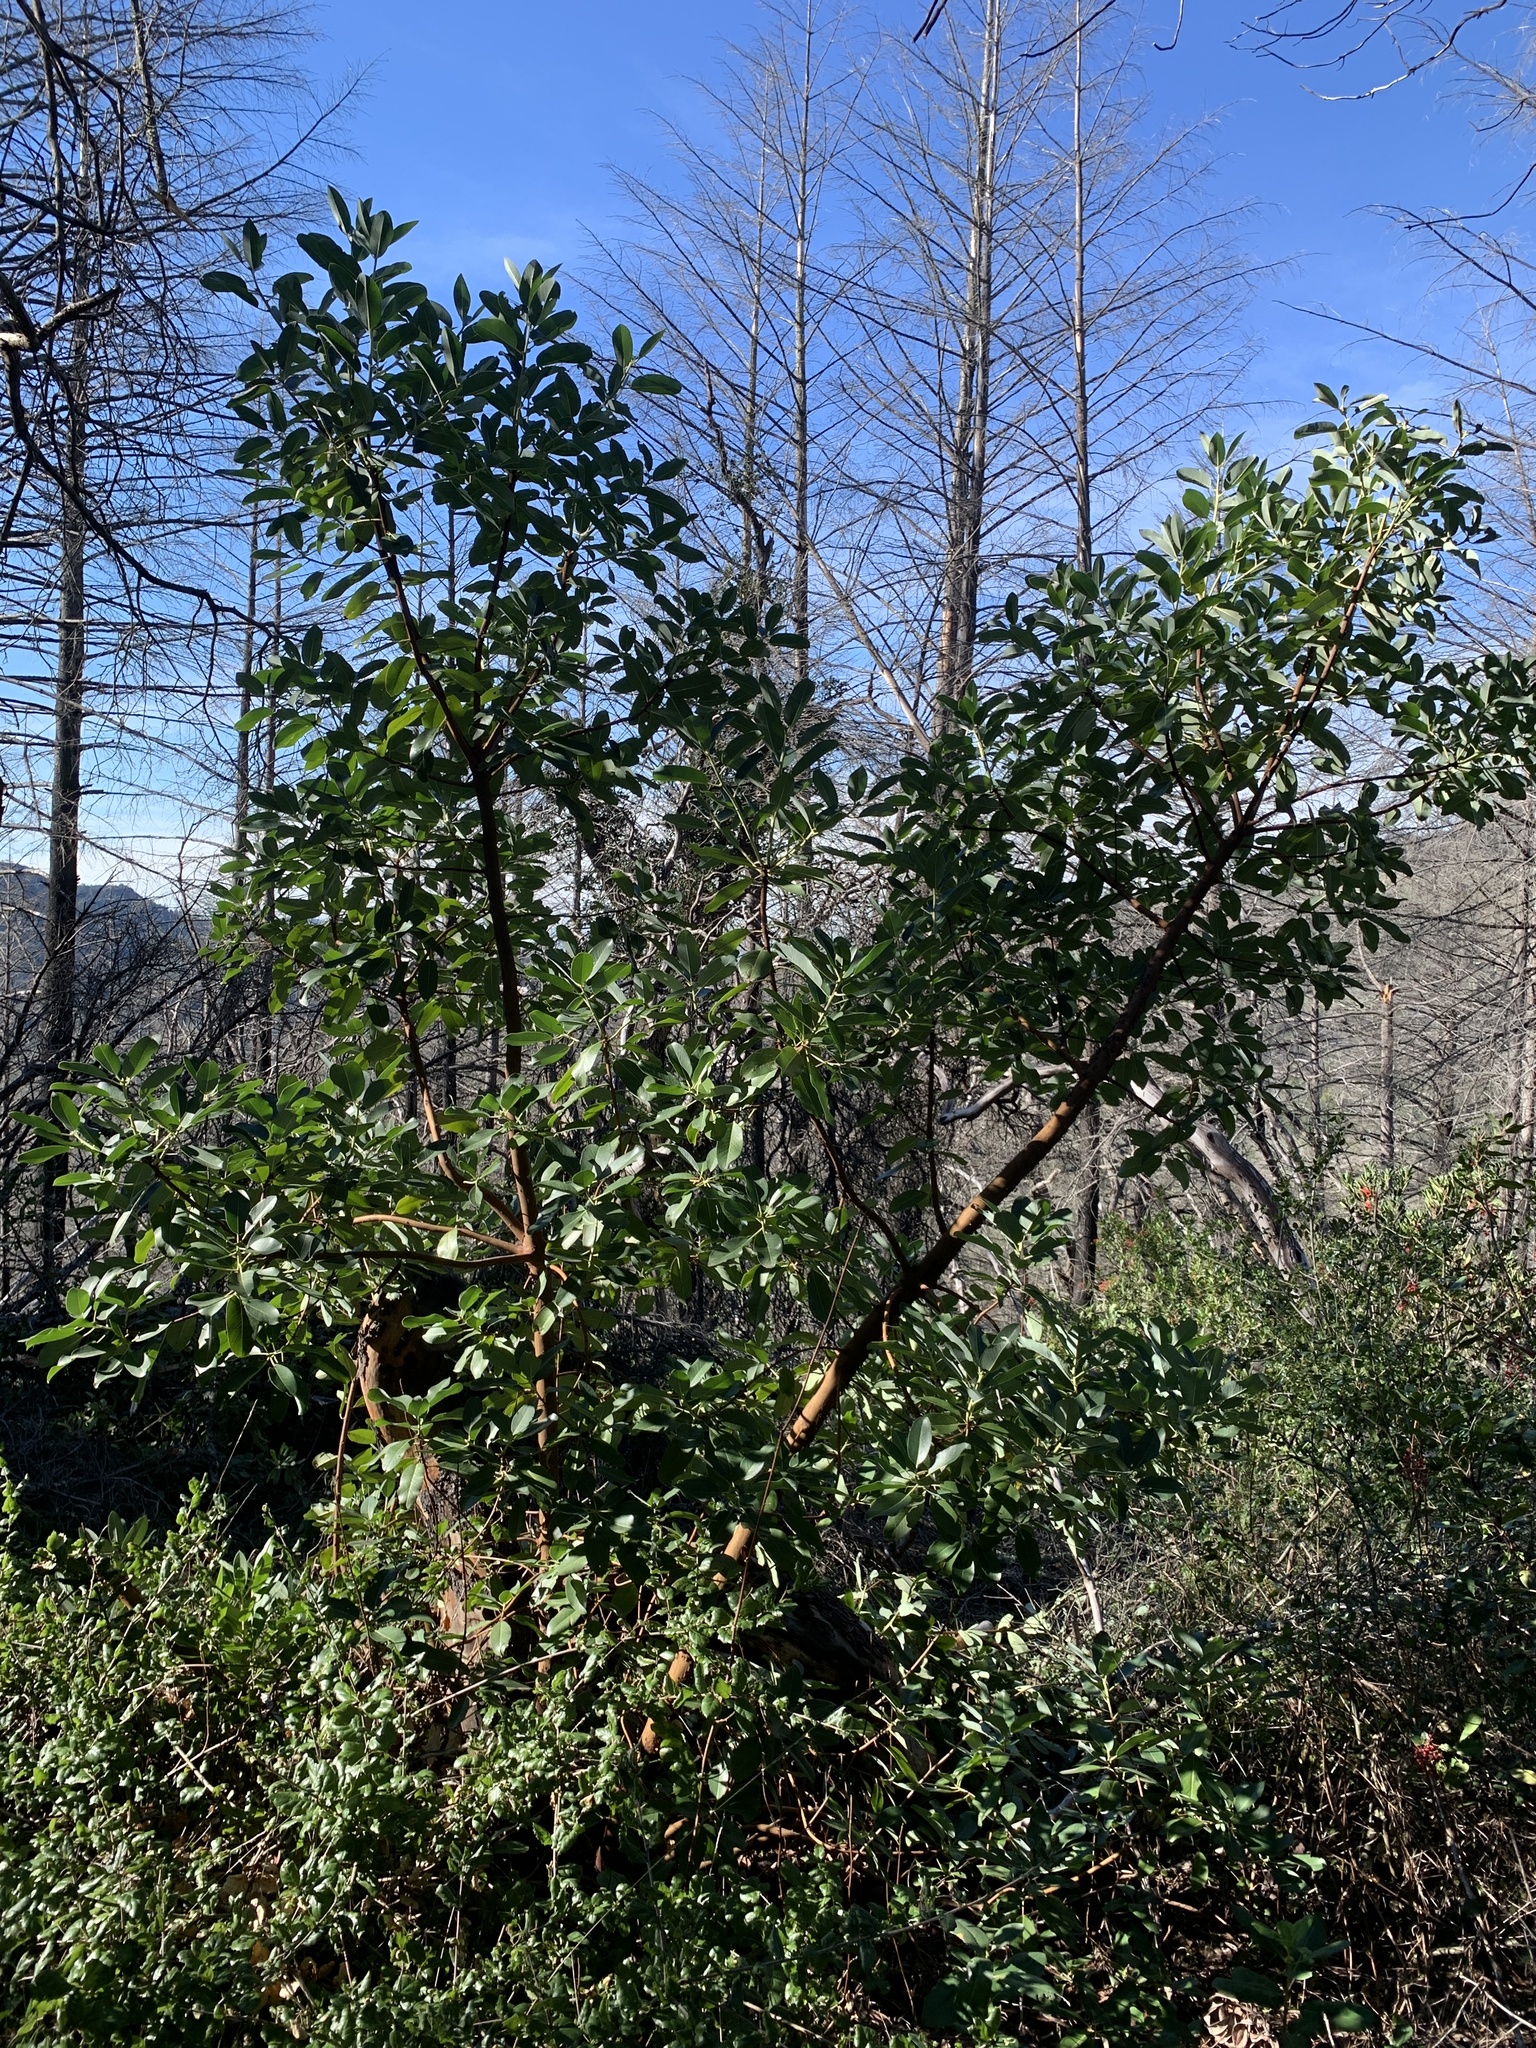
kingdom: Plantae
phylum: Tracheophyta
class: Magnoliopsida
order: Ericales
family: Ericaceae
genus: Arbutus
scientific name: Arbutus menziesii
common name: Pacific madrone
